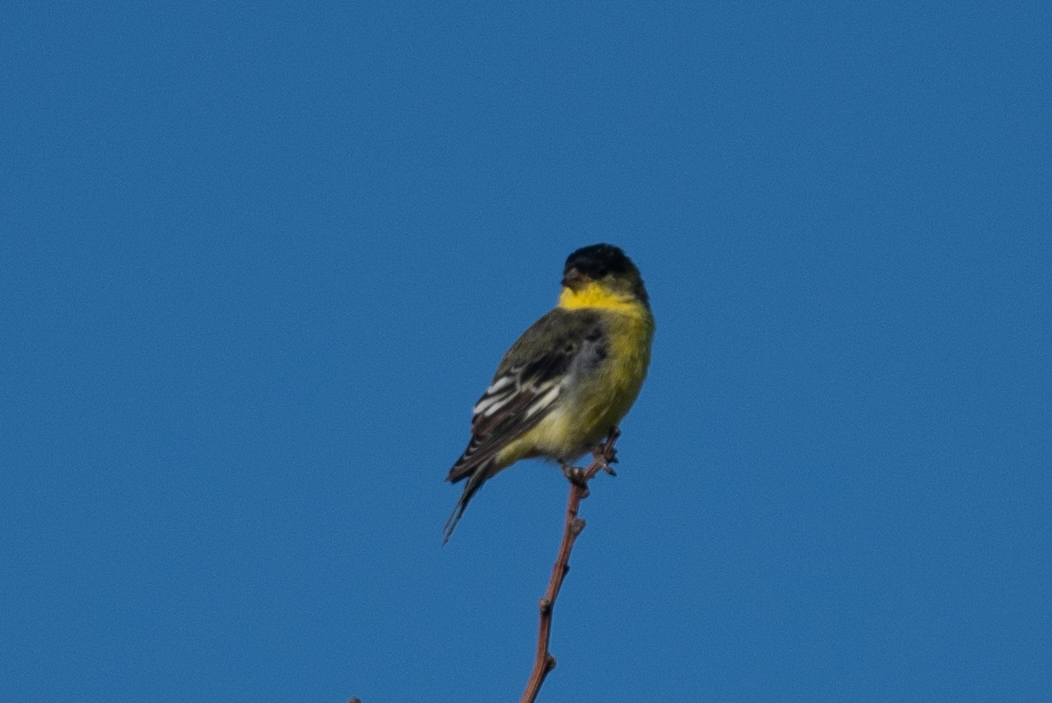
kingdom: Animalia
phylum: Chordata
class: Aves
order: Passeriformes
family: Fringillidae
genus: Spinus
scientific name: Spinus psaltria
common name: Lesser goldfinch
